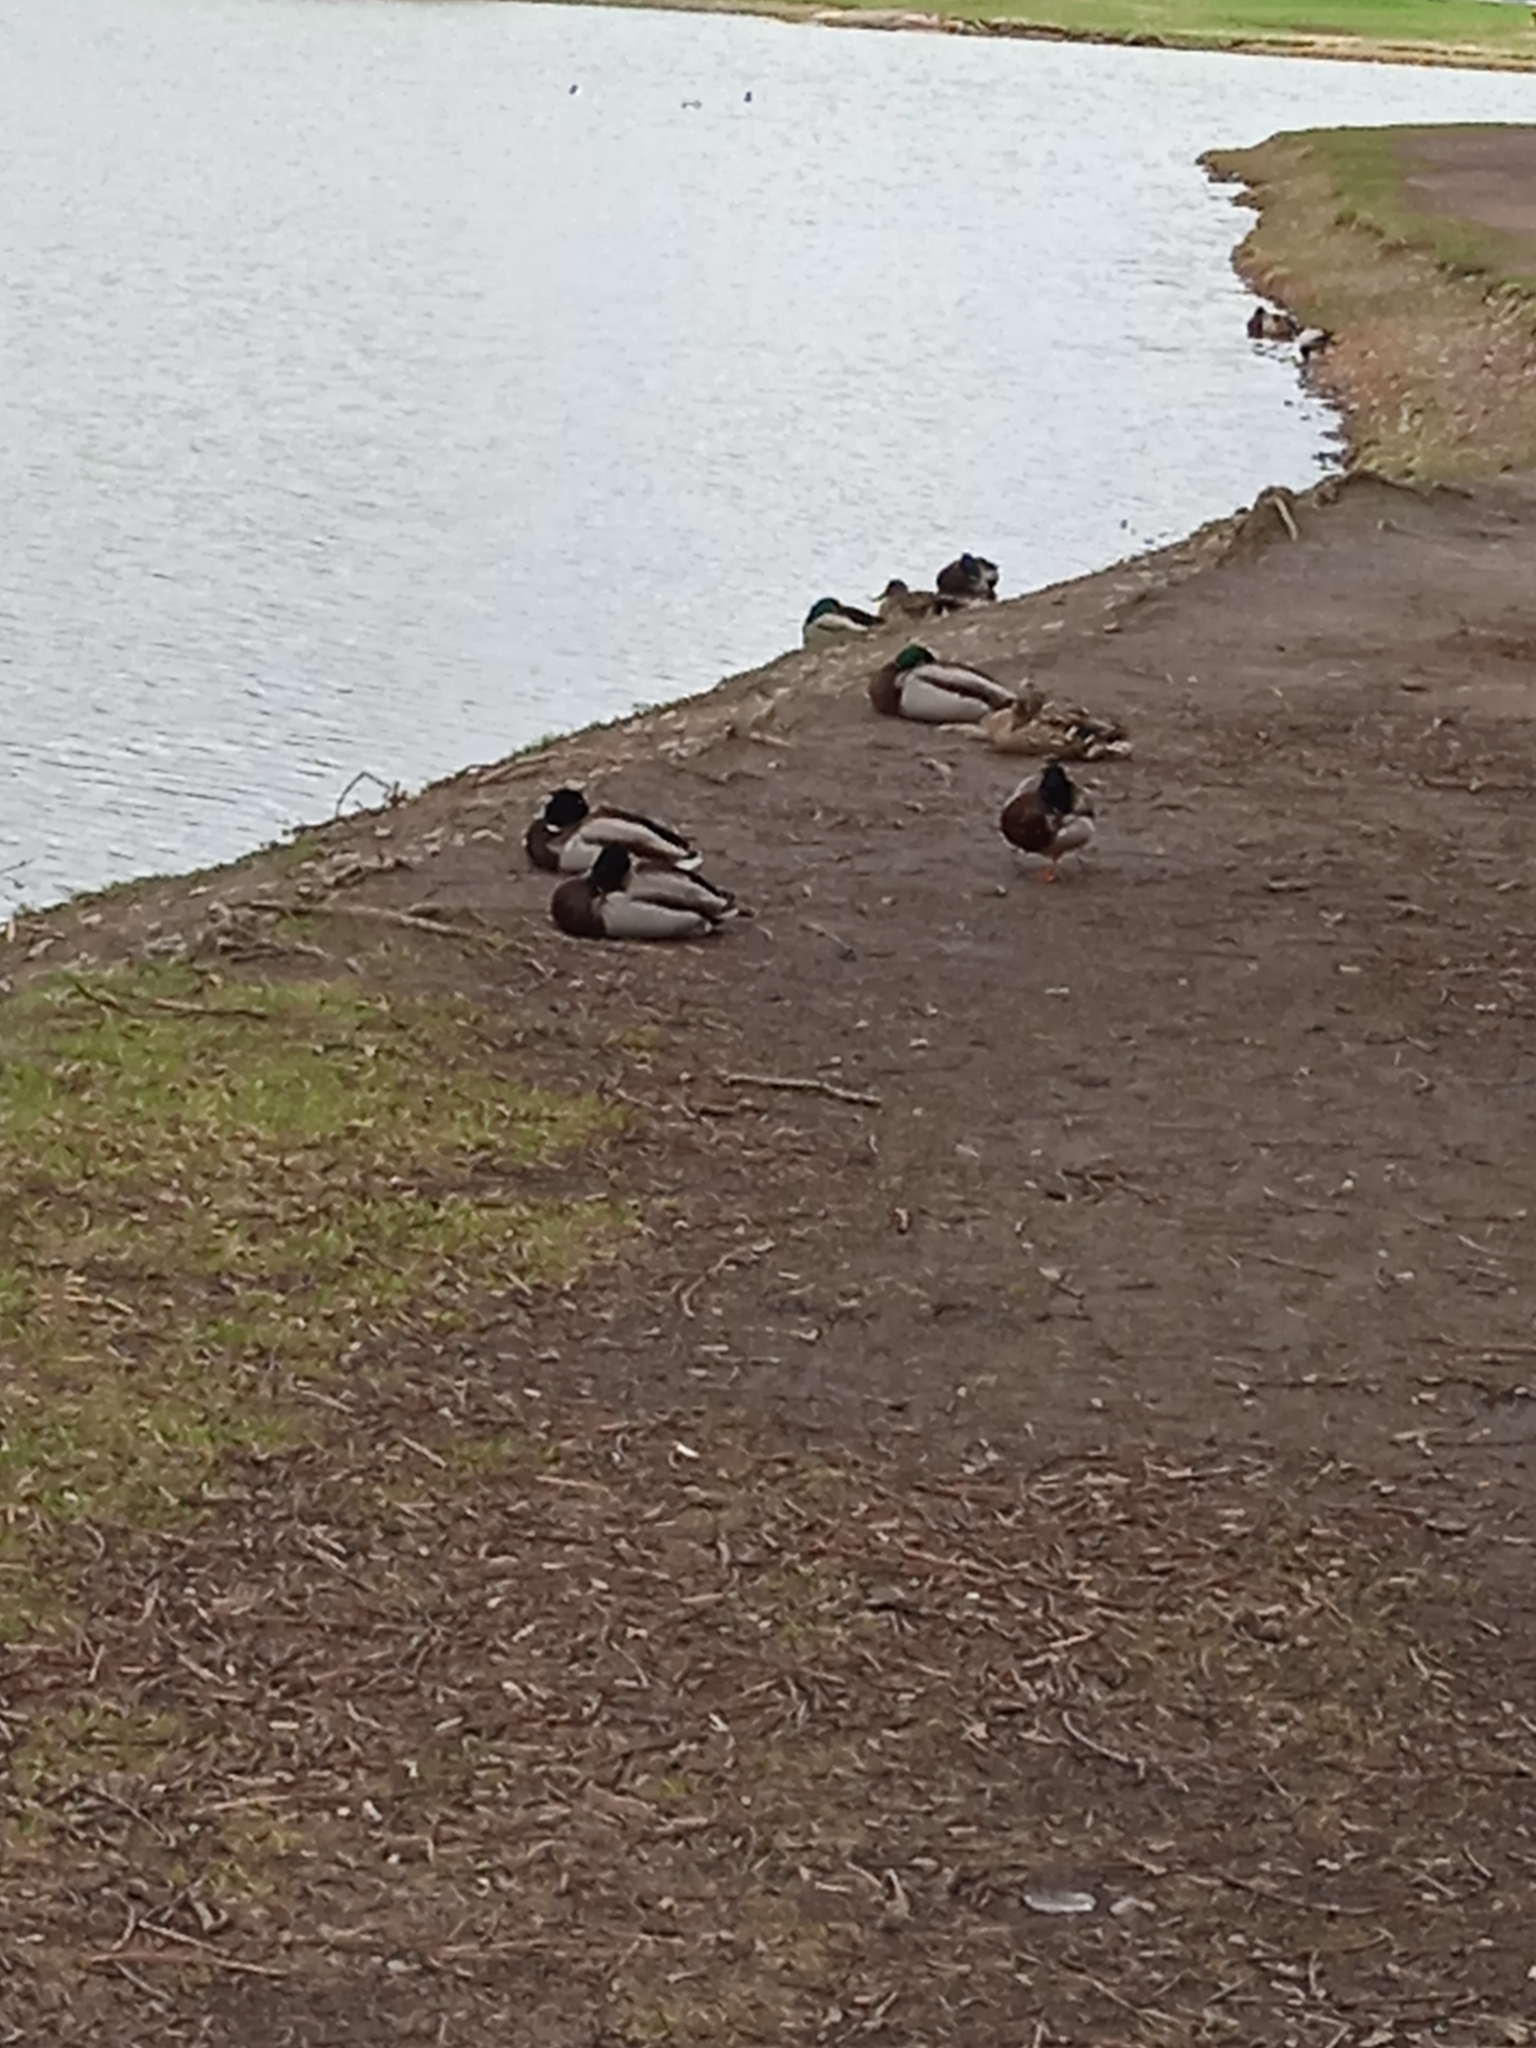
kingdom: Animalia
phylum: Chordata
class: Aves
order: Anseriformes
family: Anatidae
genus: Anas
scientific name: Anas platyrhynchos
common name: Mallard
